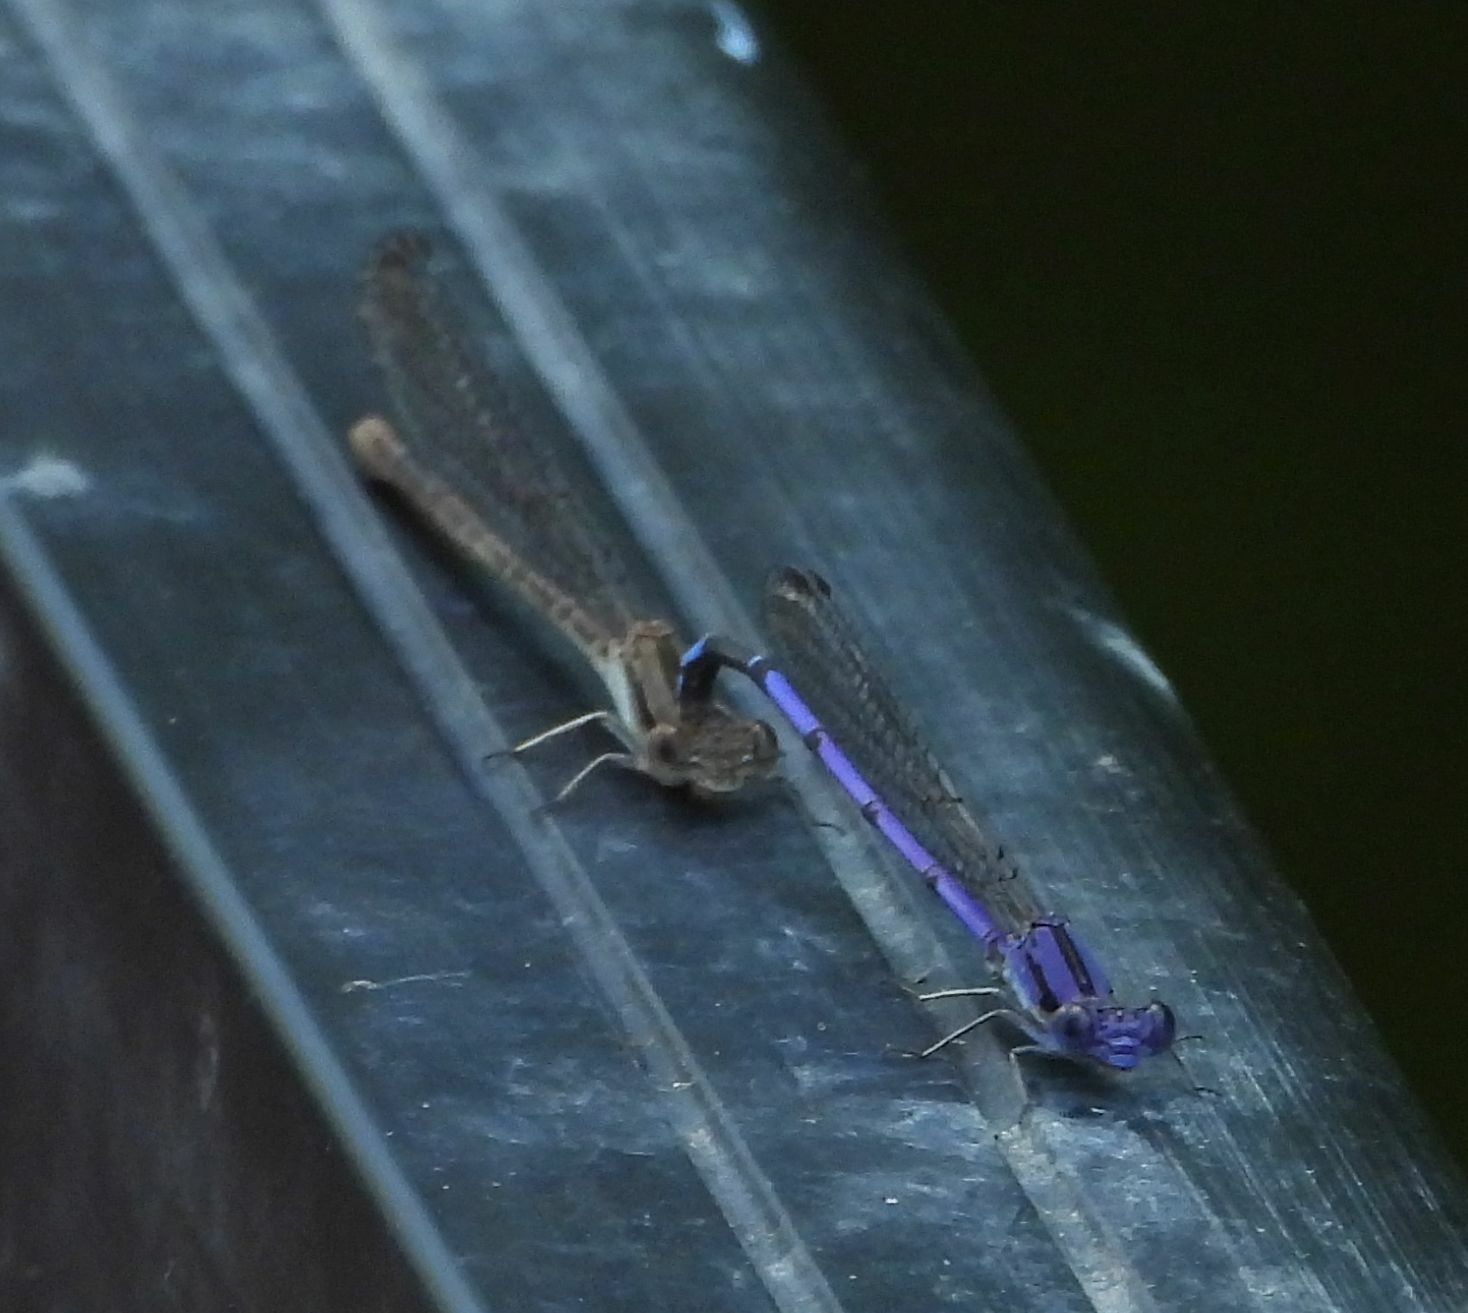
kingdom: Animalia
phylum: Arthropoda
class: Insecta
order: Odonata
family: Coenagrionidae
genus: Argia
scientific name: Argia fumipennis
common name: Variable dancer
